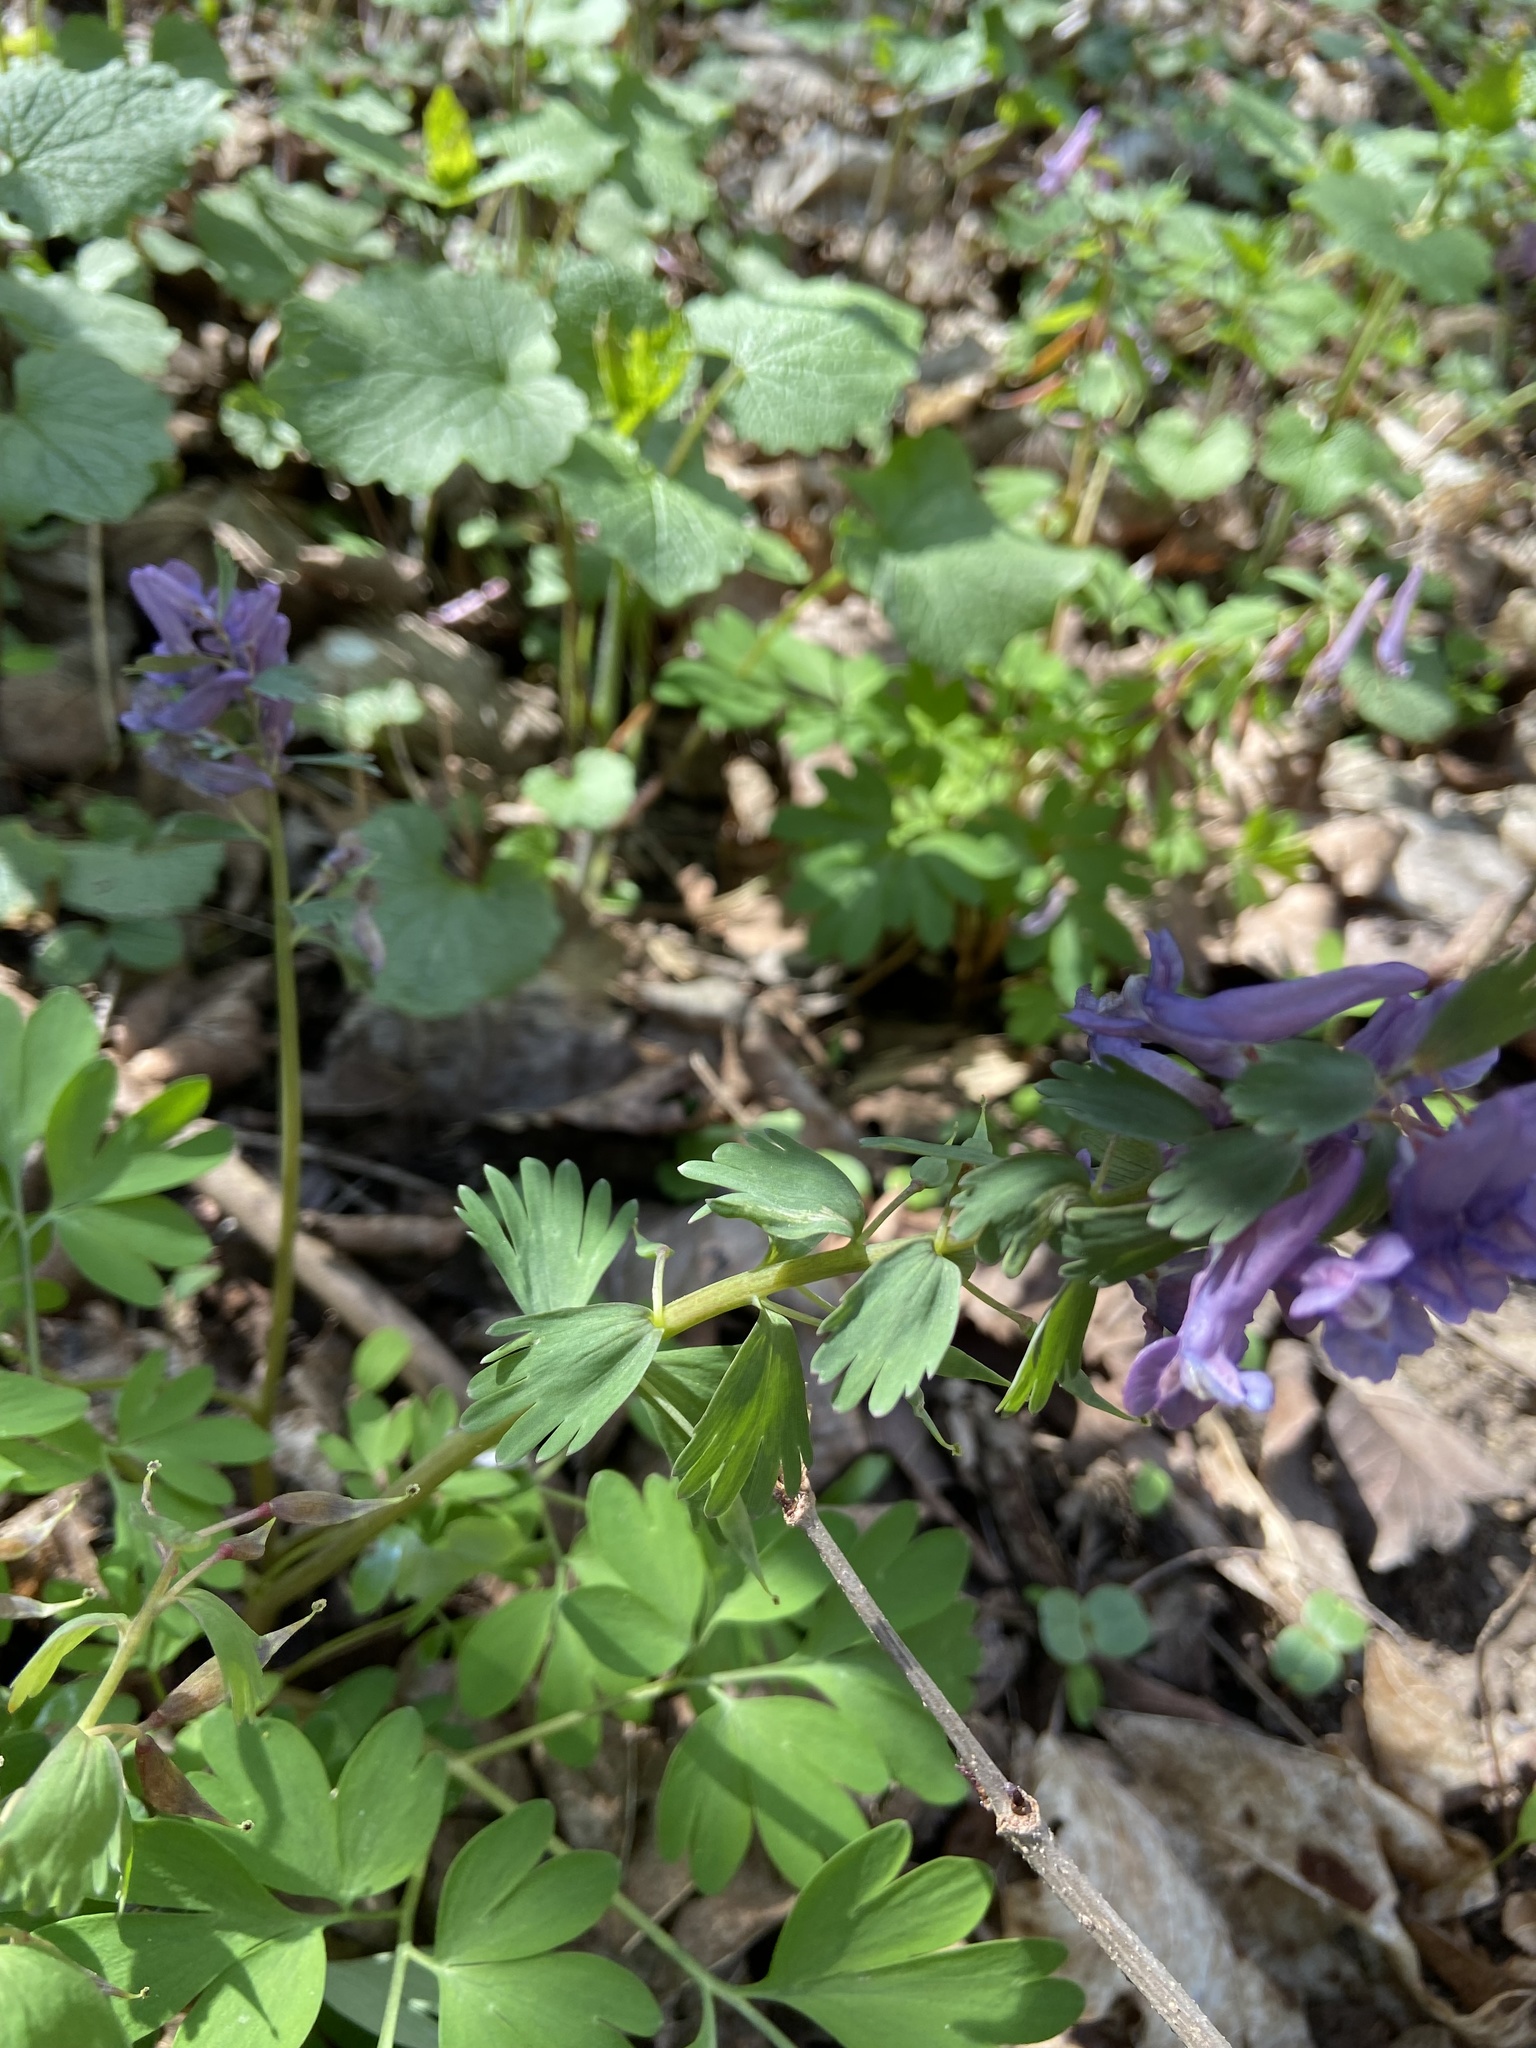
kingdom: Plantae
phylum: Tracheophyta
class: Magnoliopsida
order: Ranunculales
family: Papaveraceae
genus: Corydalis
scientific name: Corydalis solida
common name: Bird-in-a-bush
